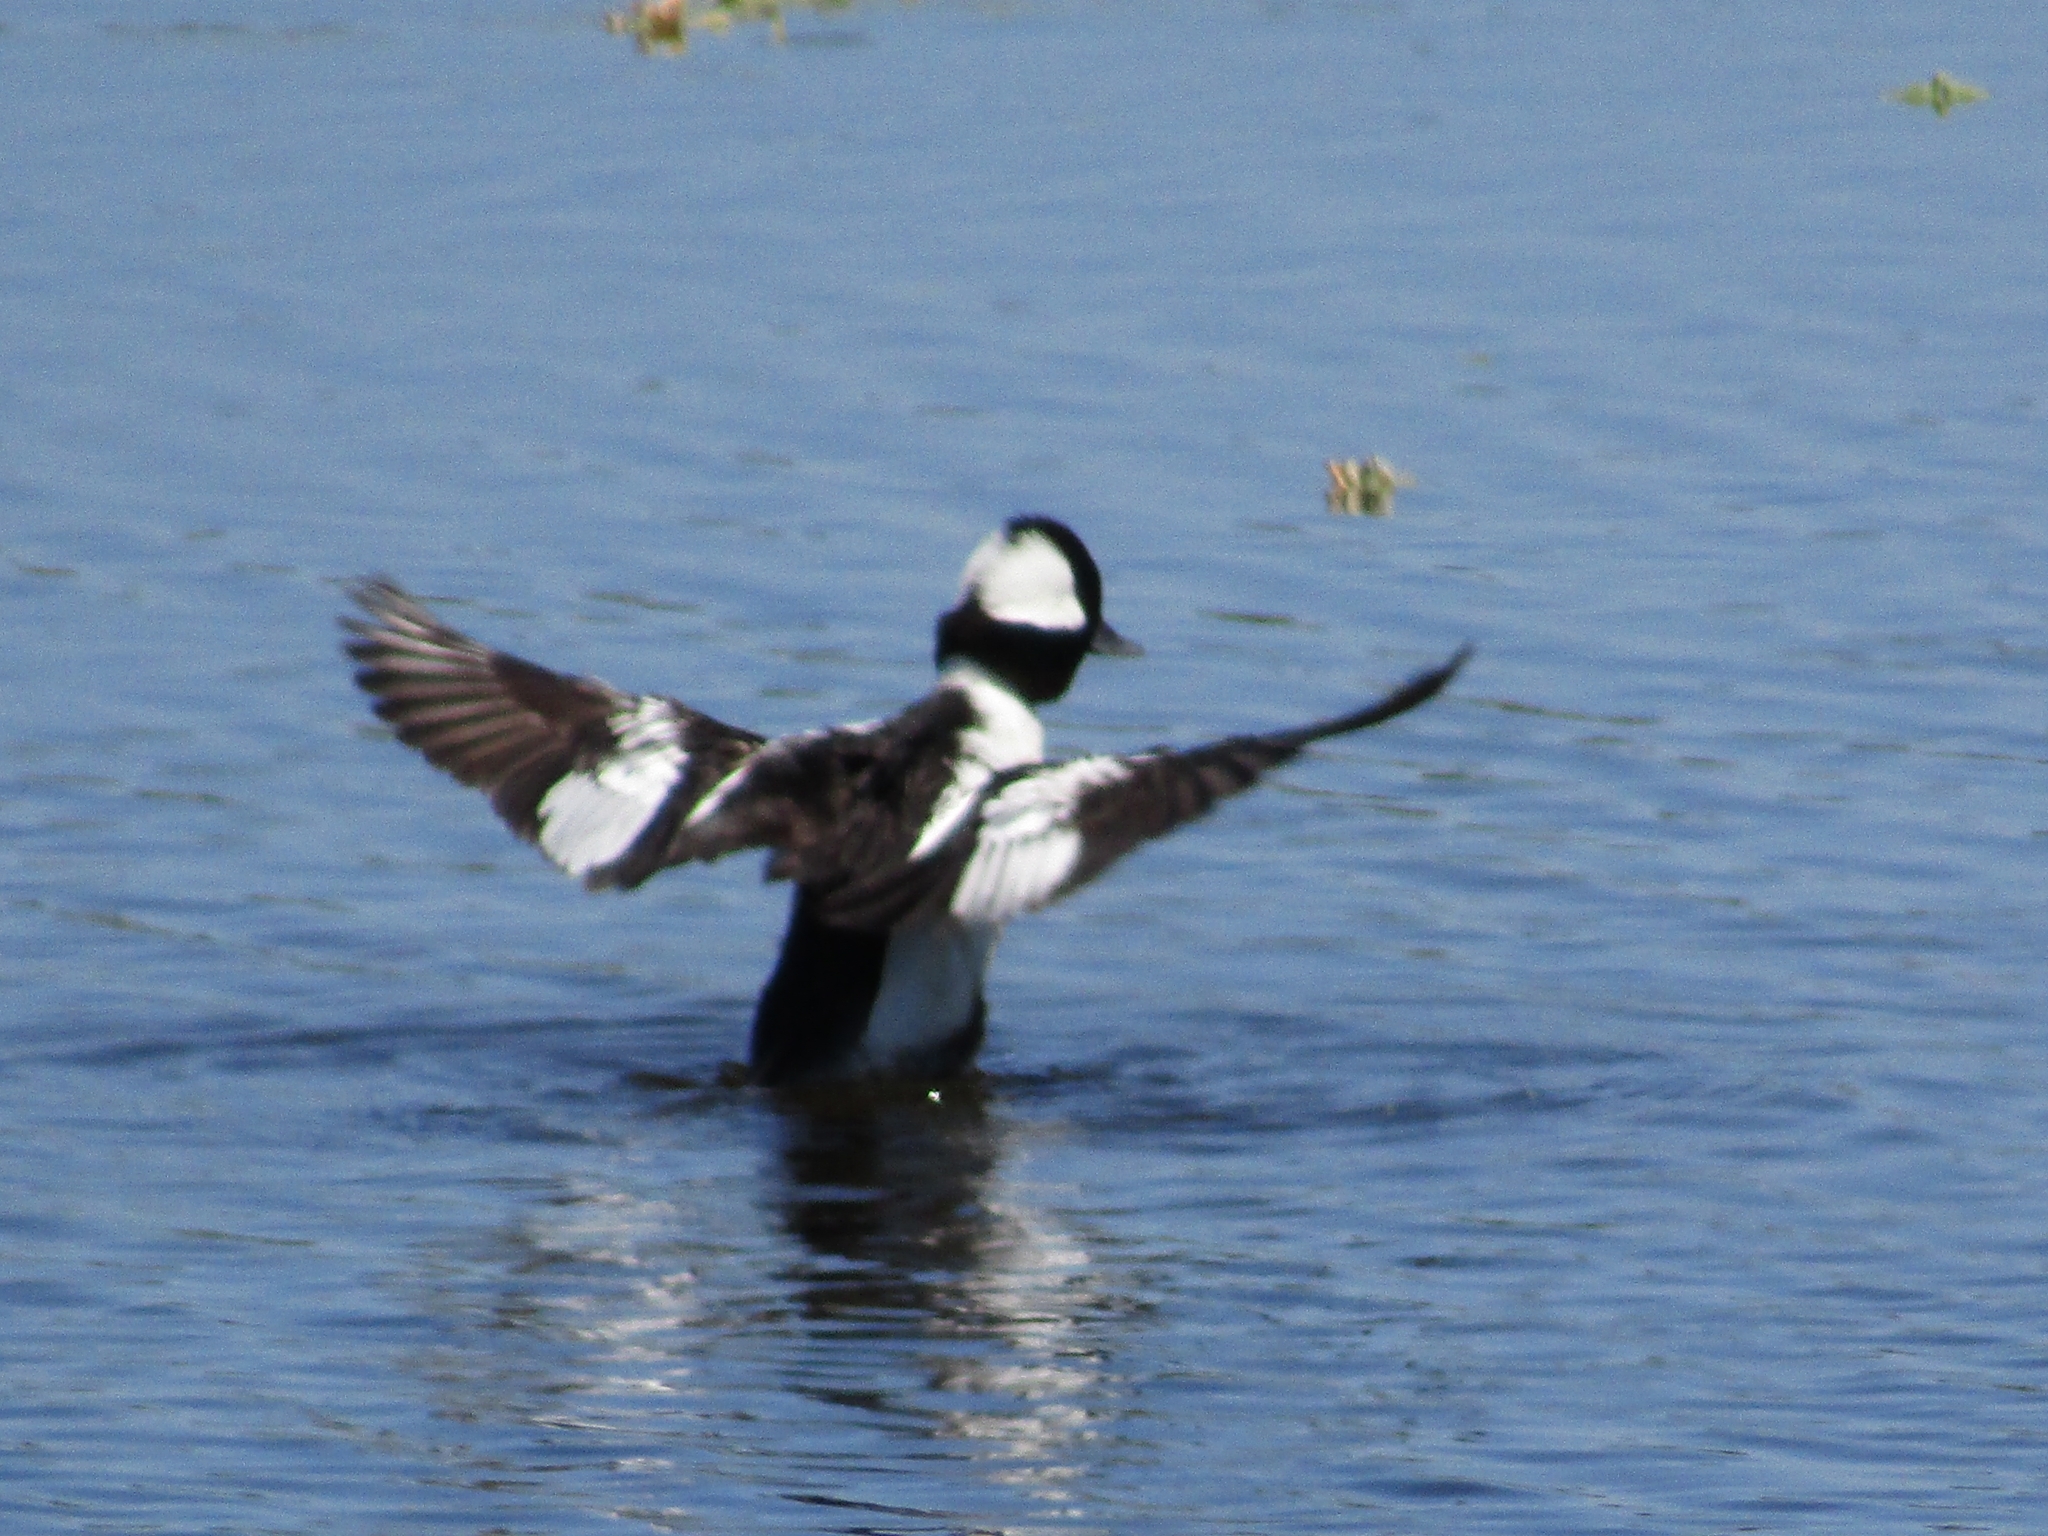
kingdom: Animalia
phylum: Chordata
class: Aves
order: Anseriformes
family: Anatidae
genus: Bucephala
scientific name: Bucephala albeola
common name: Bufflehead
